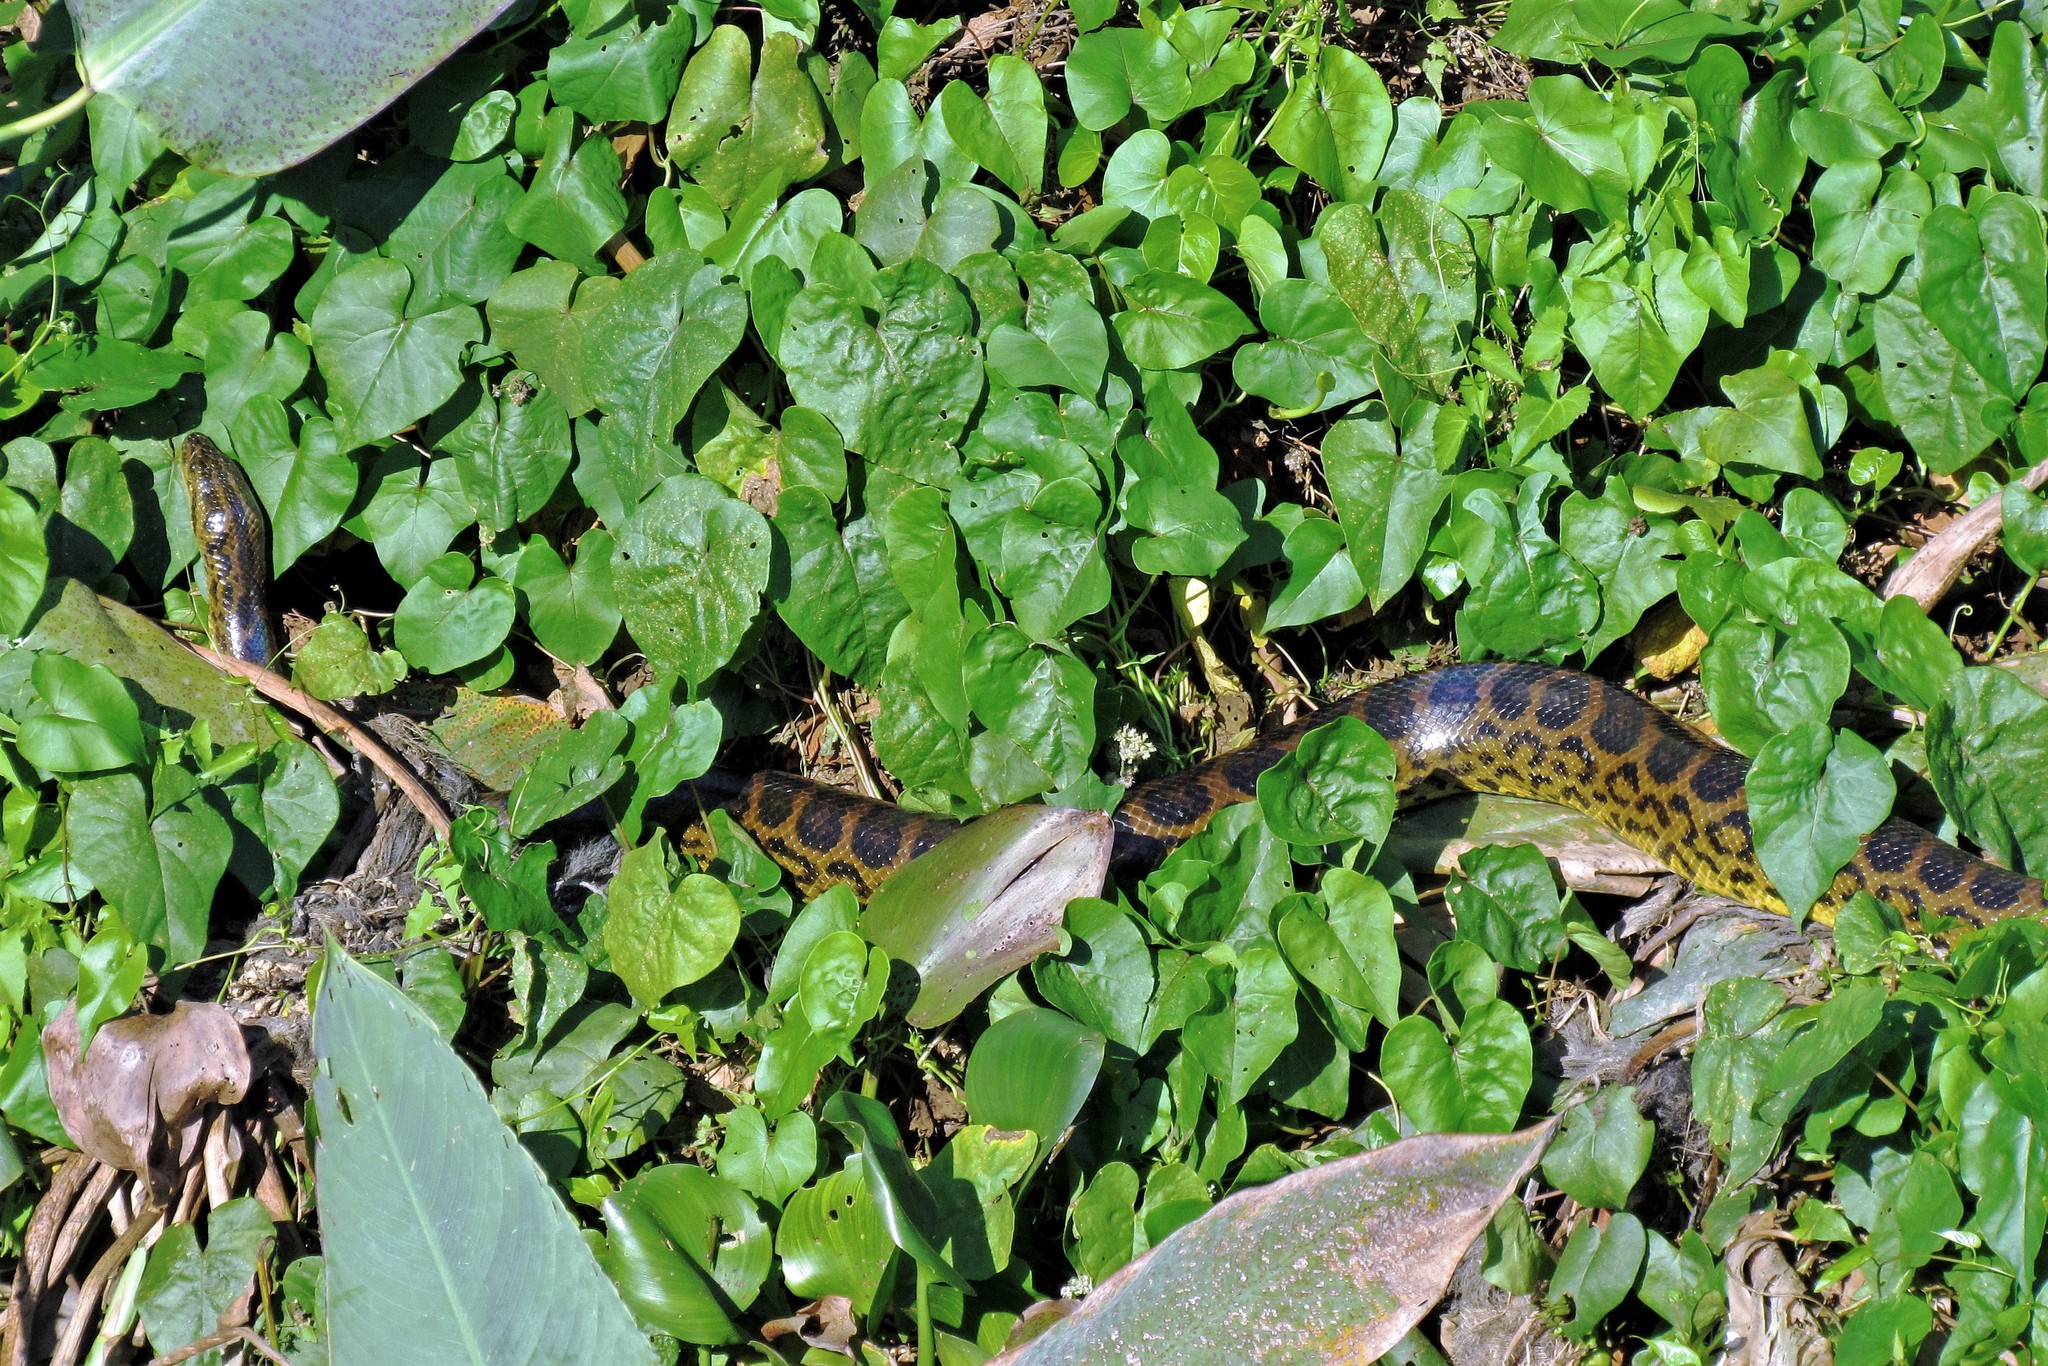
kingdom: Animalia
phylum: Chordata
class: Squamata
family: Boidae
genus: Eunectes
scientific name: Eunectes notaeus
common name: Yellow anaconda
